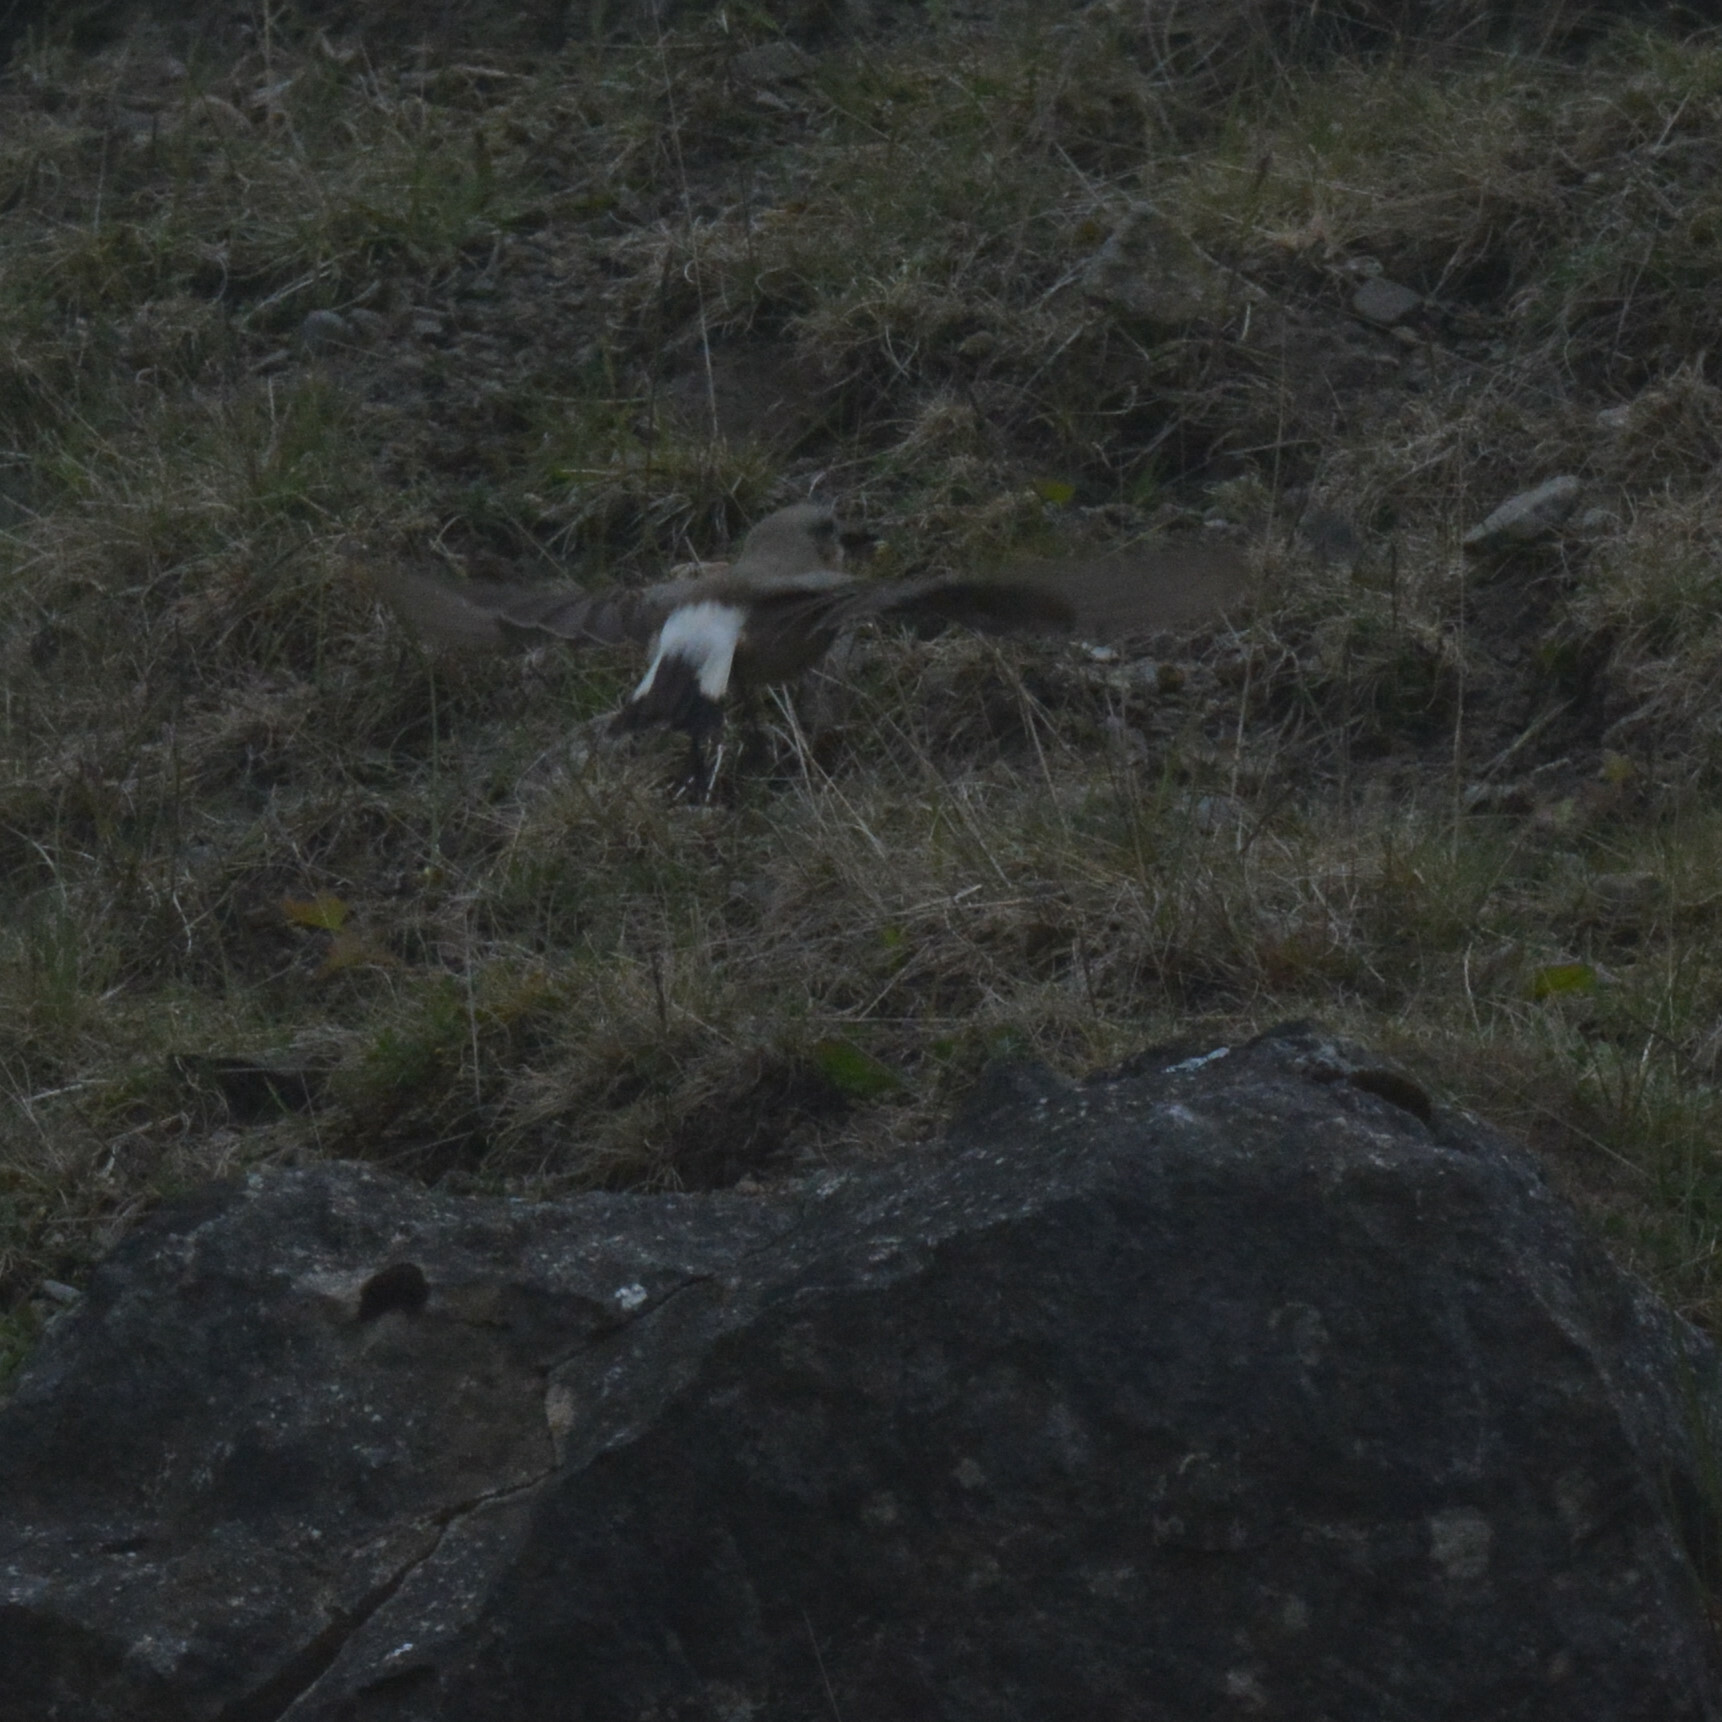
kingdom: Animalia
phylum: Chordata
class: Aves
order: Passeriformes
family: Muscicapidae
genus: Oenanthe
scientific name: Oenanthe oenanthe
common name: Northern wheatear
